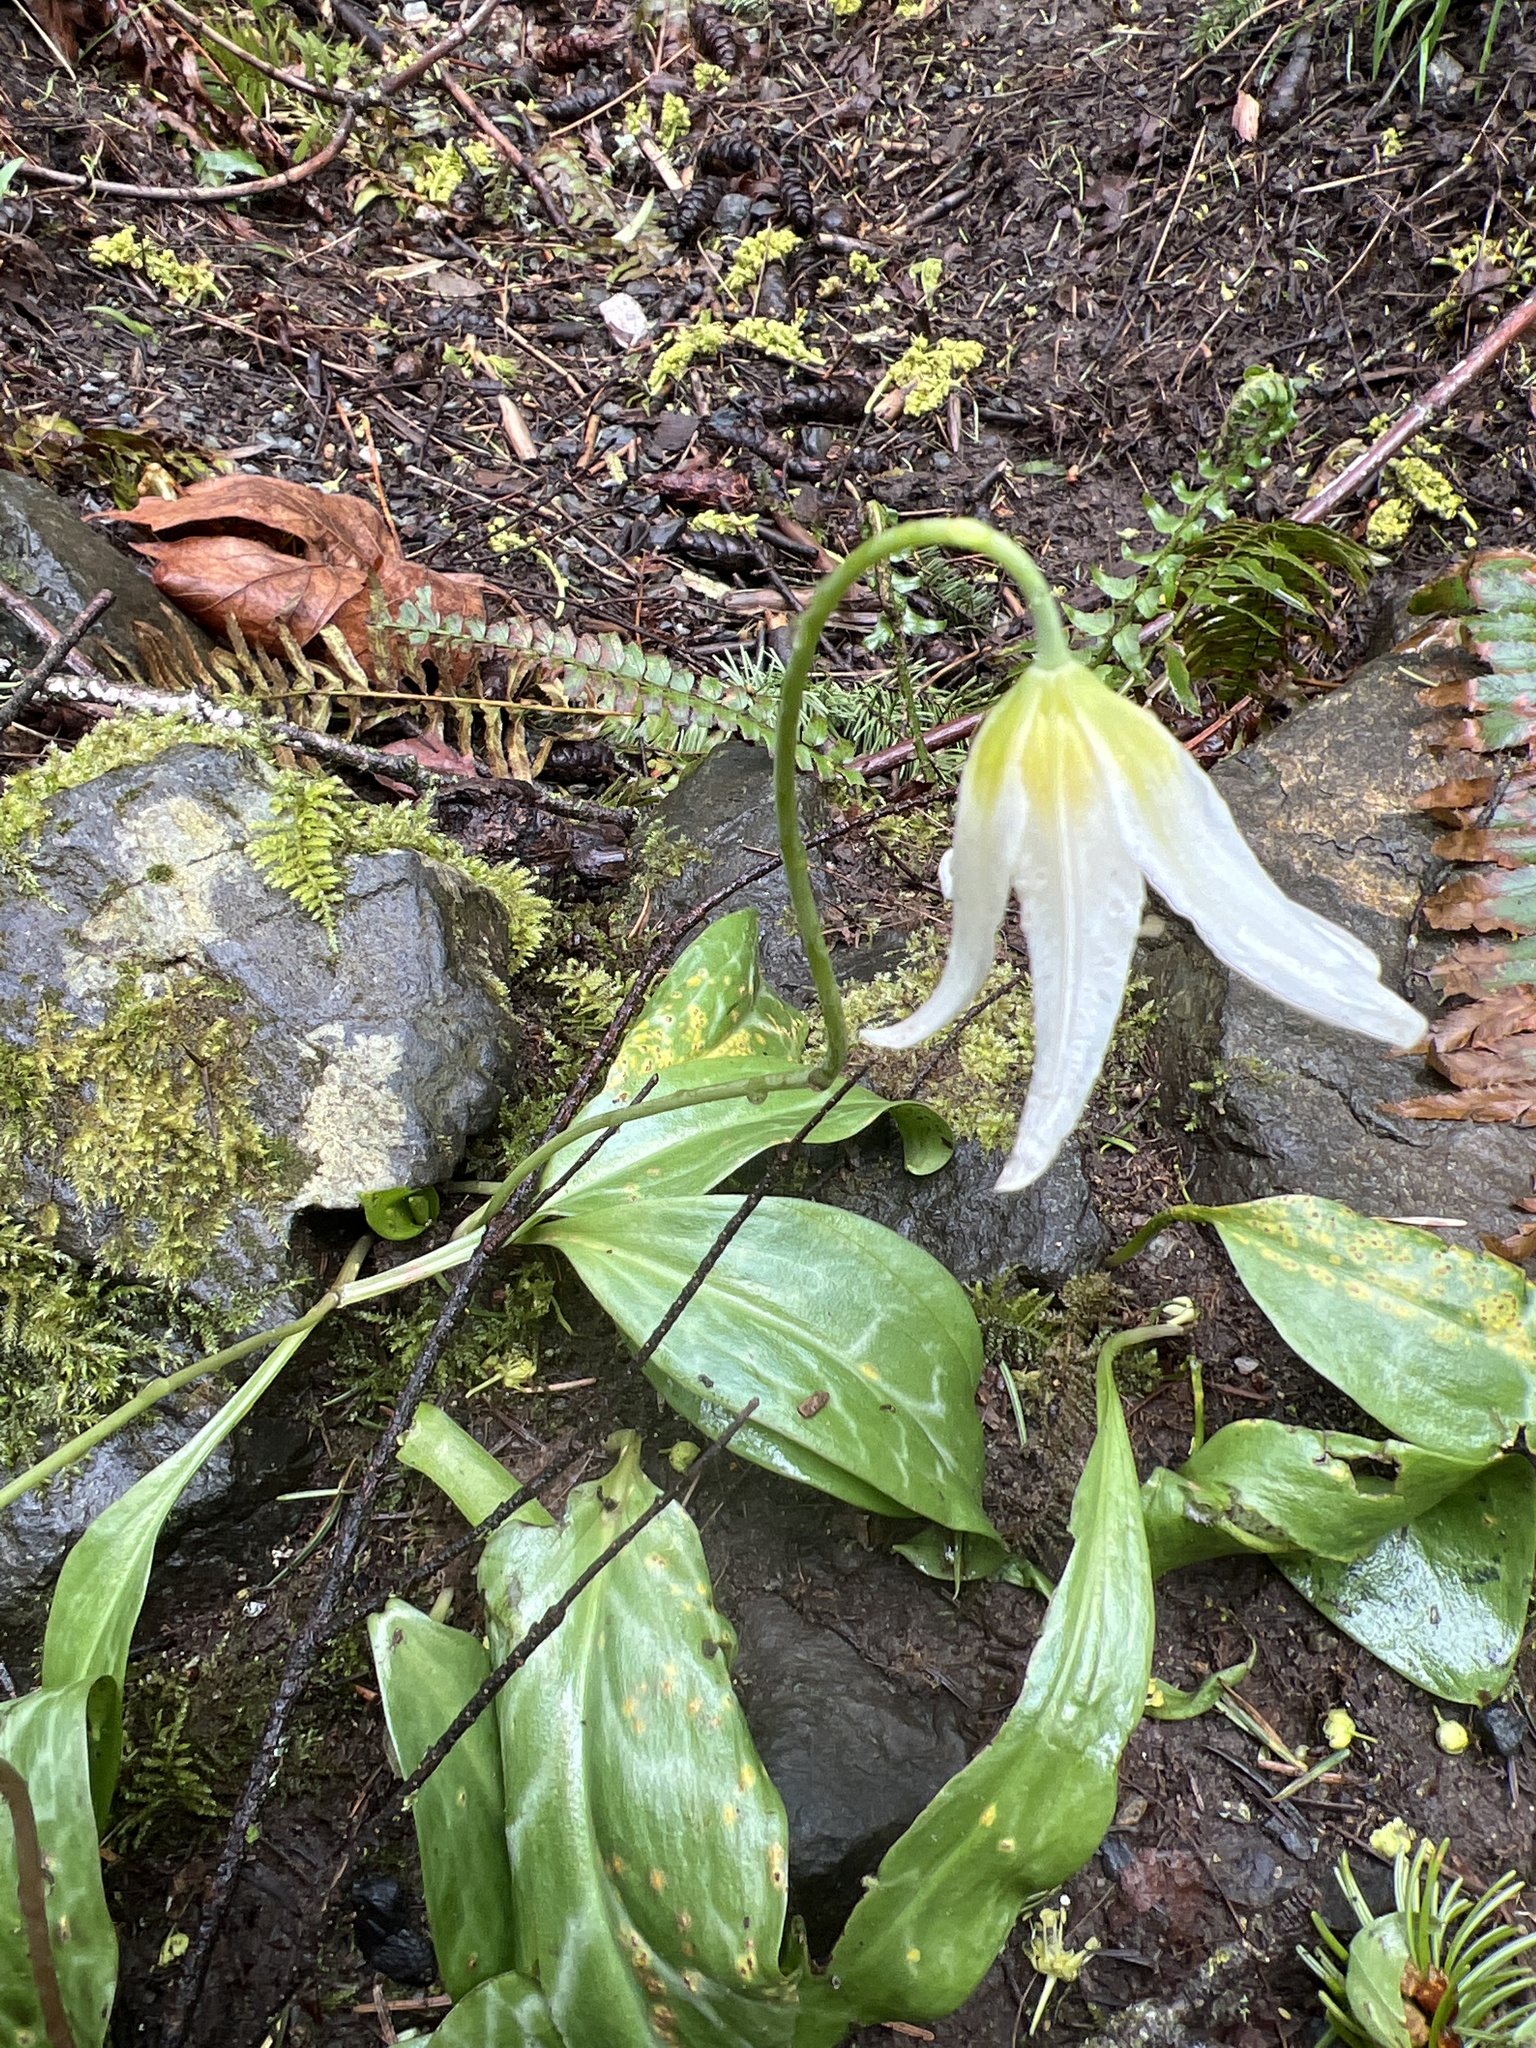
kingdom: Plantae
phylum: Tracheophyta
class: Liliopsida
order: Liliales
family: Liliaceae
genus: Erythronium
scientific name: Erythronium oregonum
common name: Giant adder's-tongue
